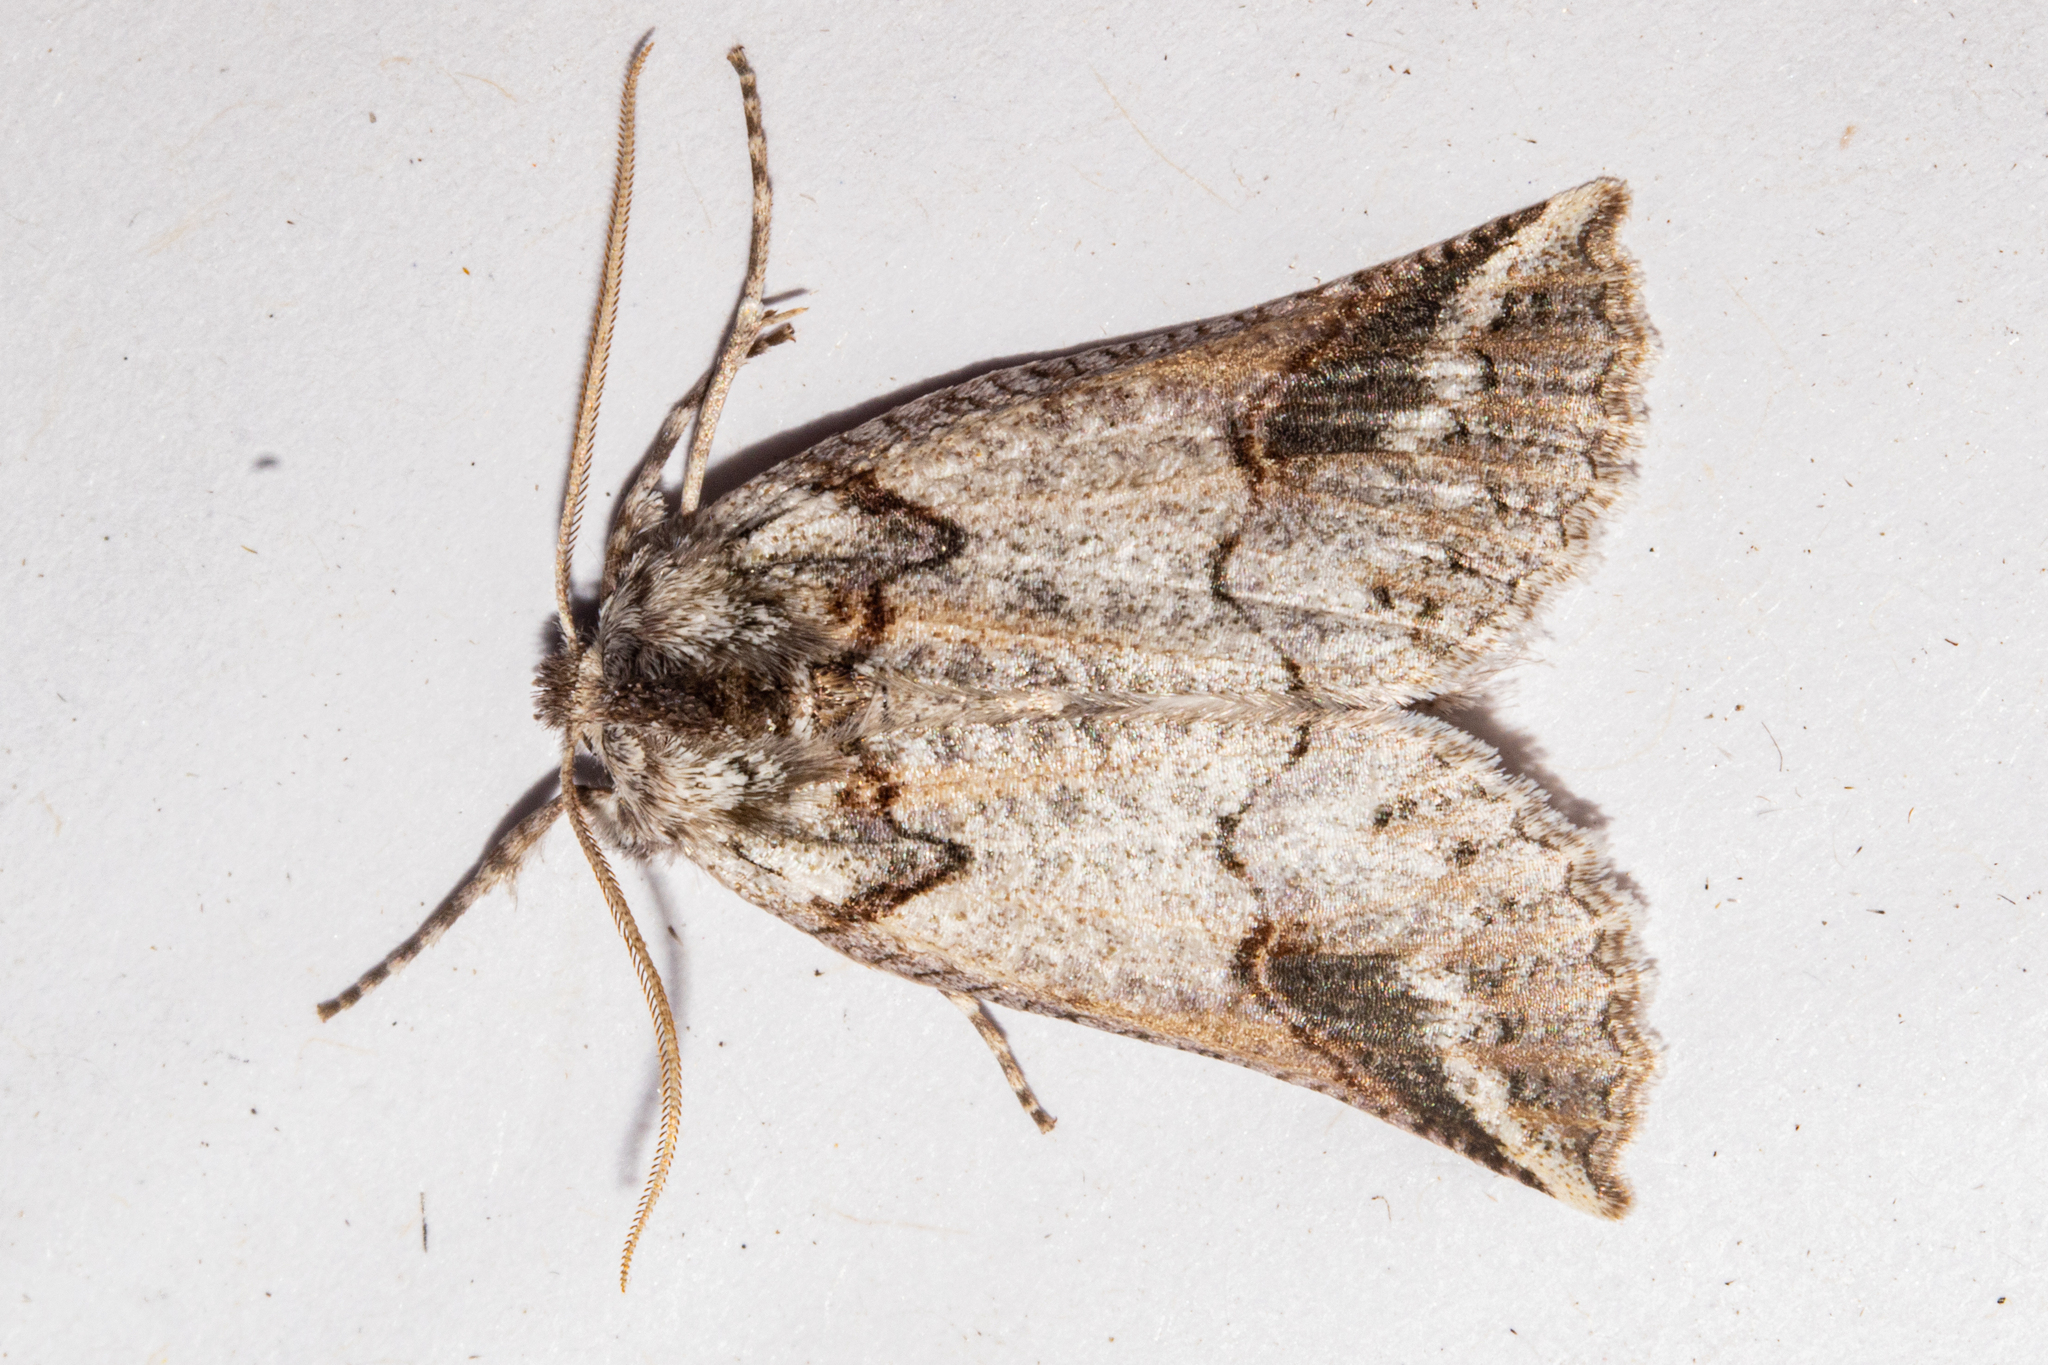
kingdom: Animalia
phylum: Arthropoda
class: Insecta
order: Lepidoptera
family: Geometridae
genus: Declana
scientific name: Declana
